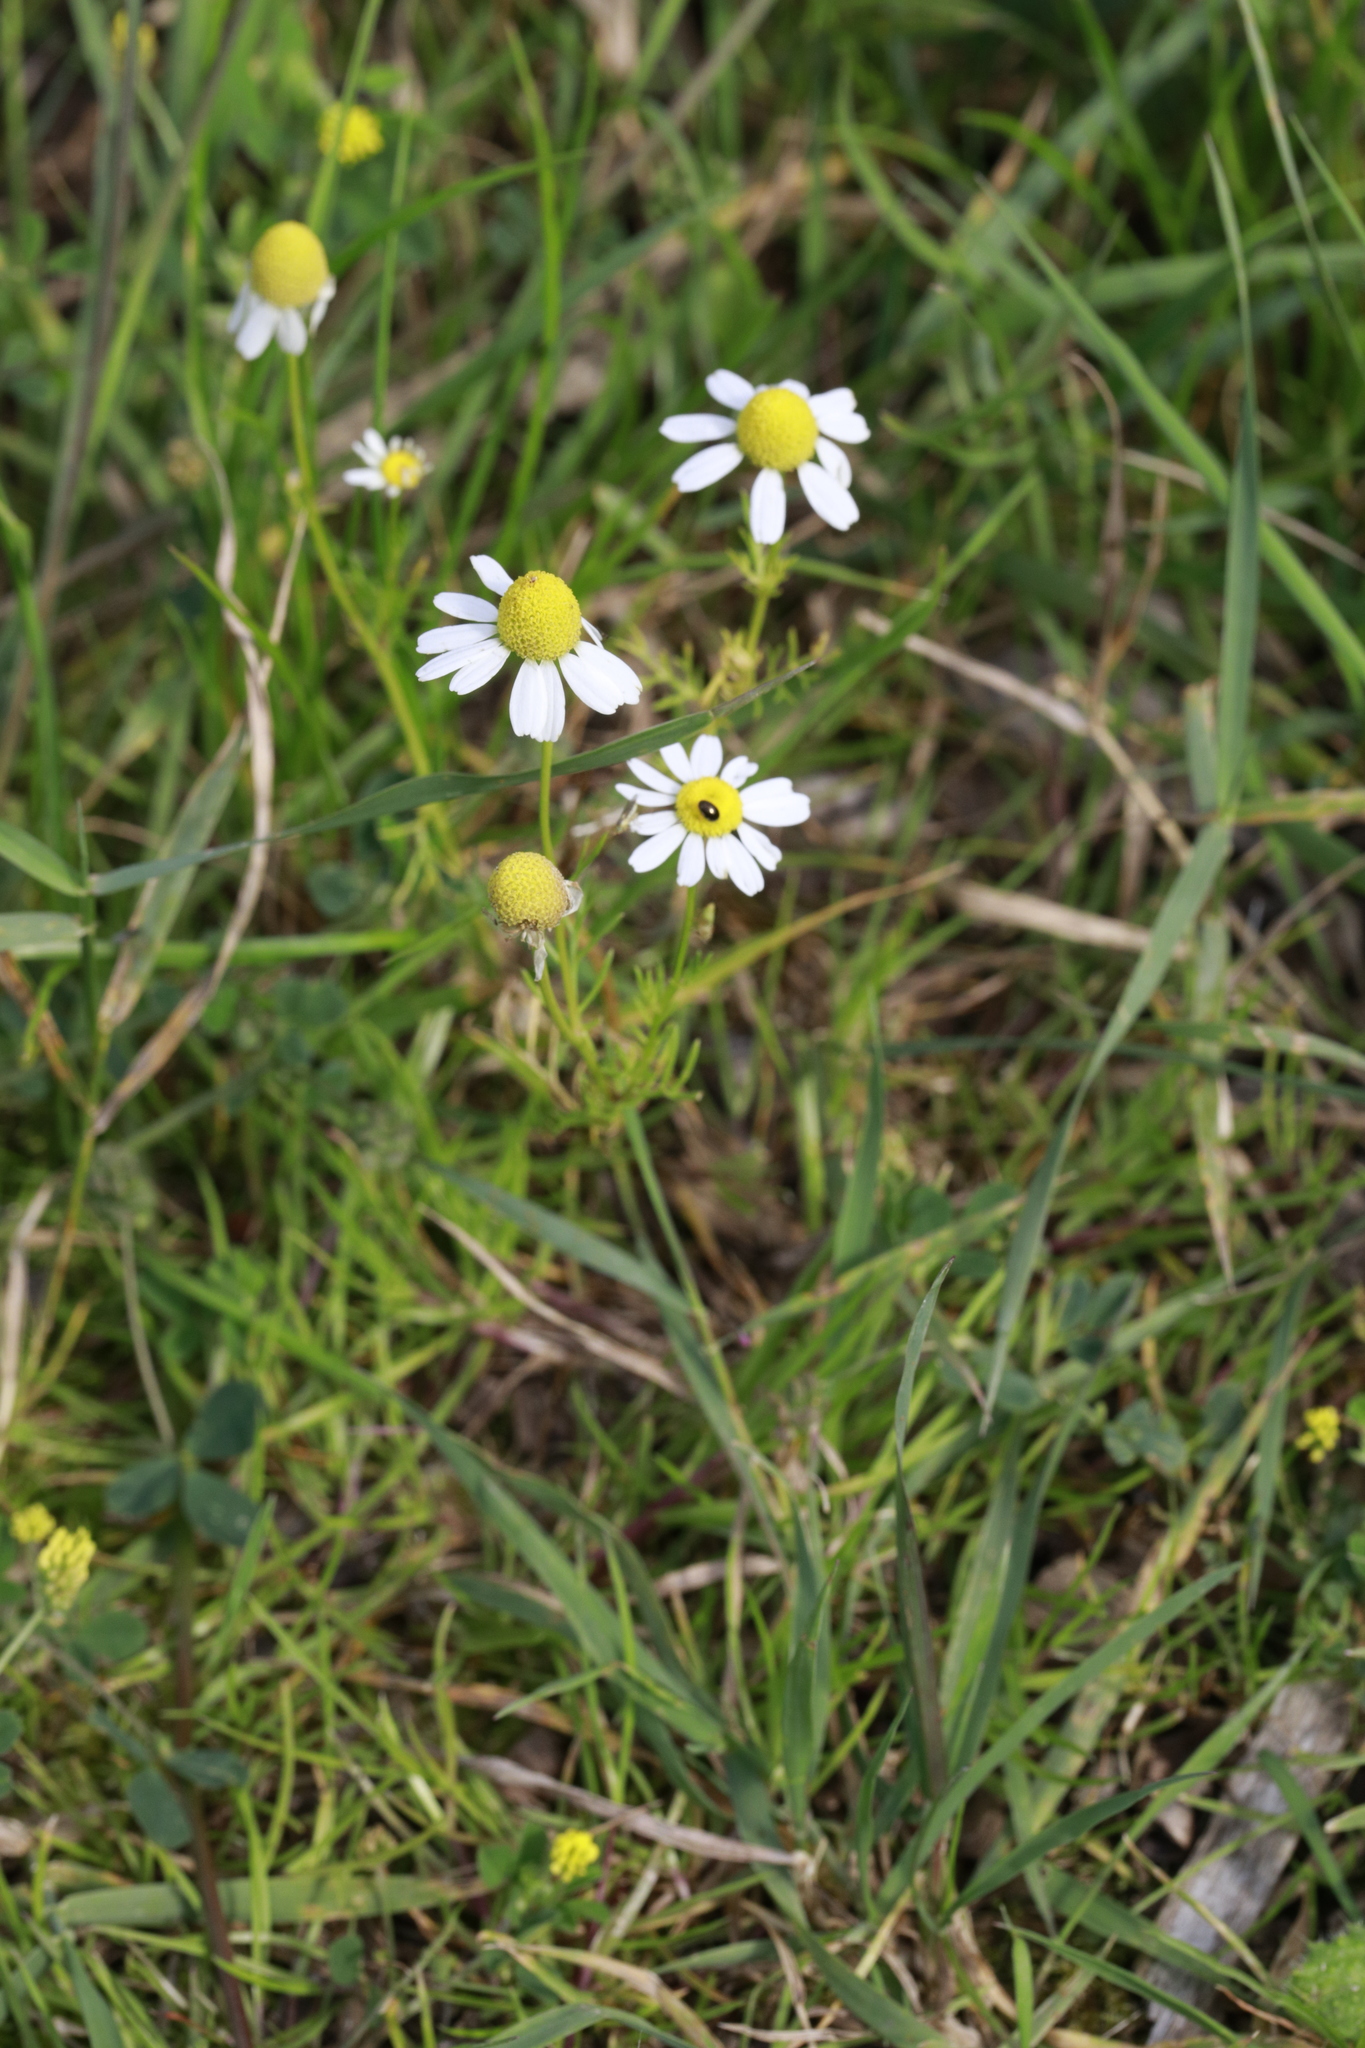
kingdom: Plantae
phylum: Tracheophyta
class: Magnoliopsida
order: Asterales
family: Asteraceae
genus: Matricaria
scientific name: Matricaria chamomilla
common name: Scented mayweed
